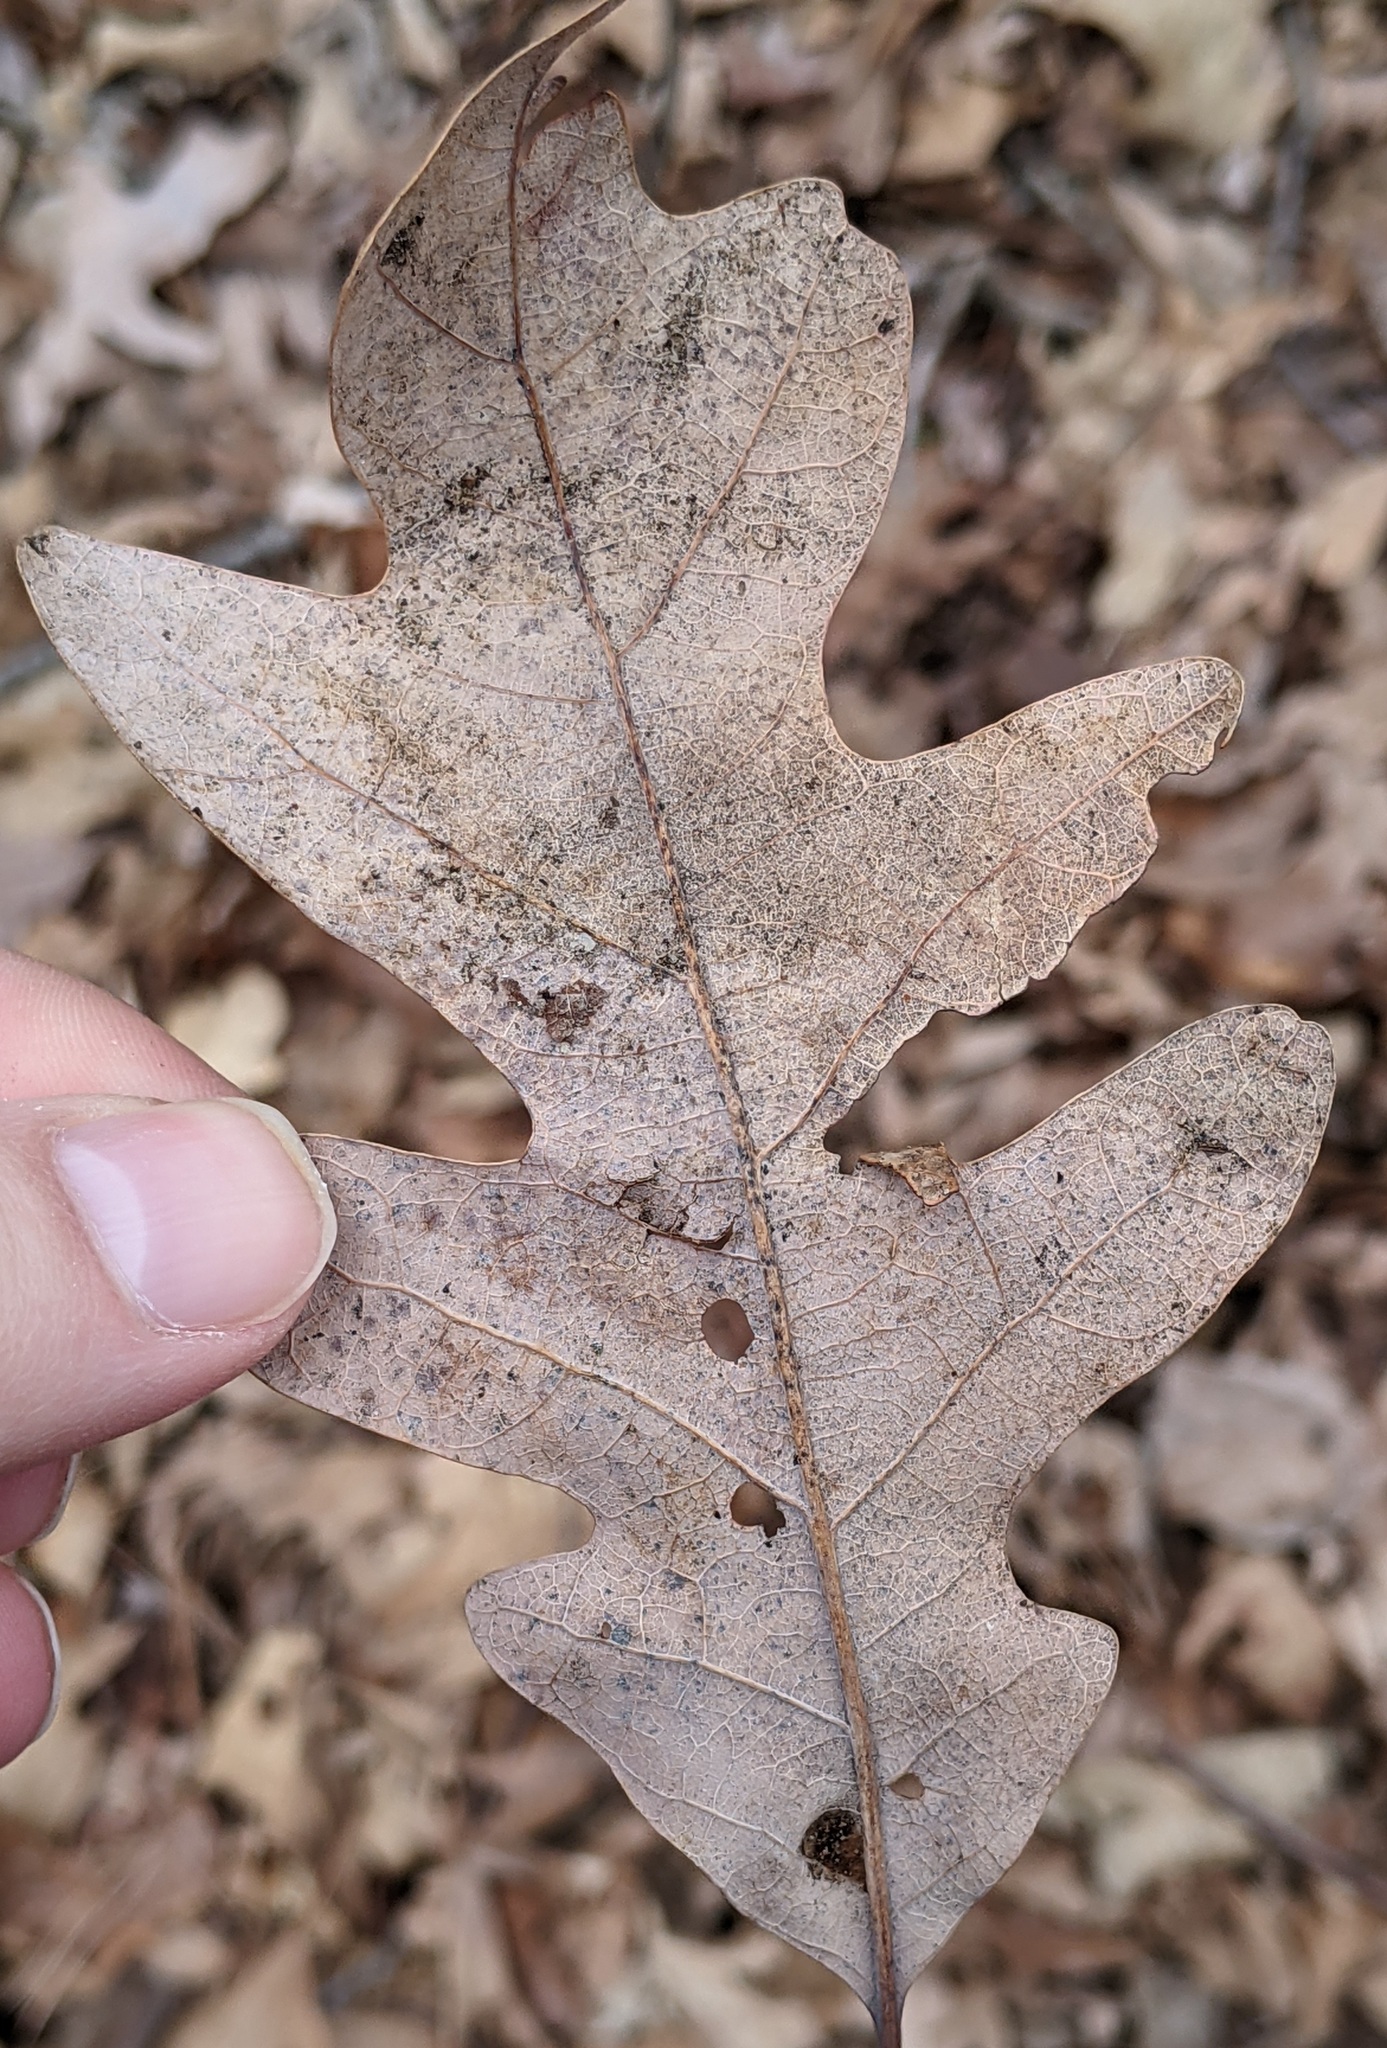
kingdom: Plantae
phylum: Tracheophyta
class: Magnoliopsida
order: Fagales
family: Fagaceae
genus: Quercus
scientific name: Quercus alba
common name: White oak
